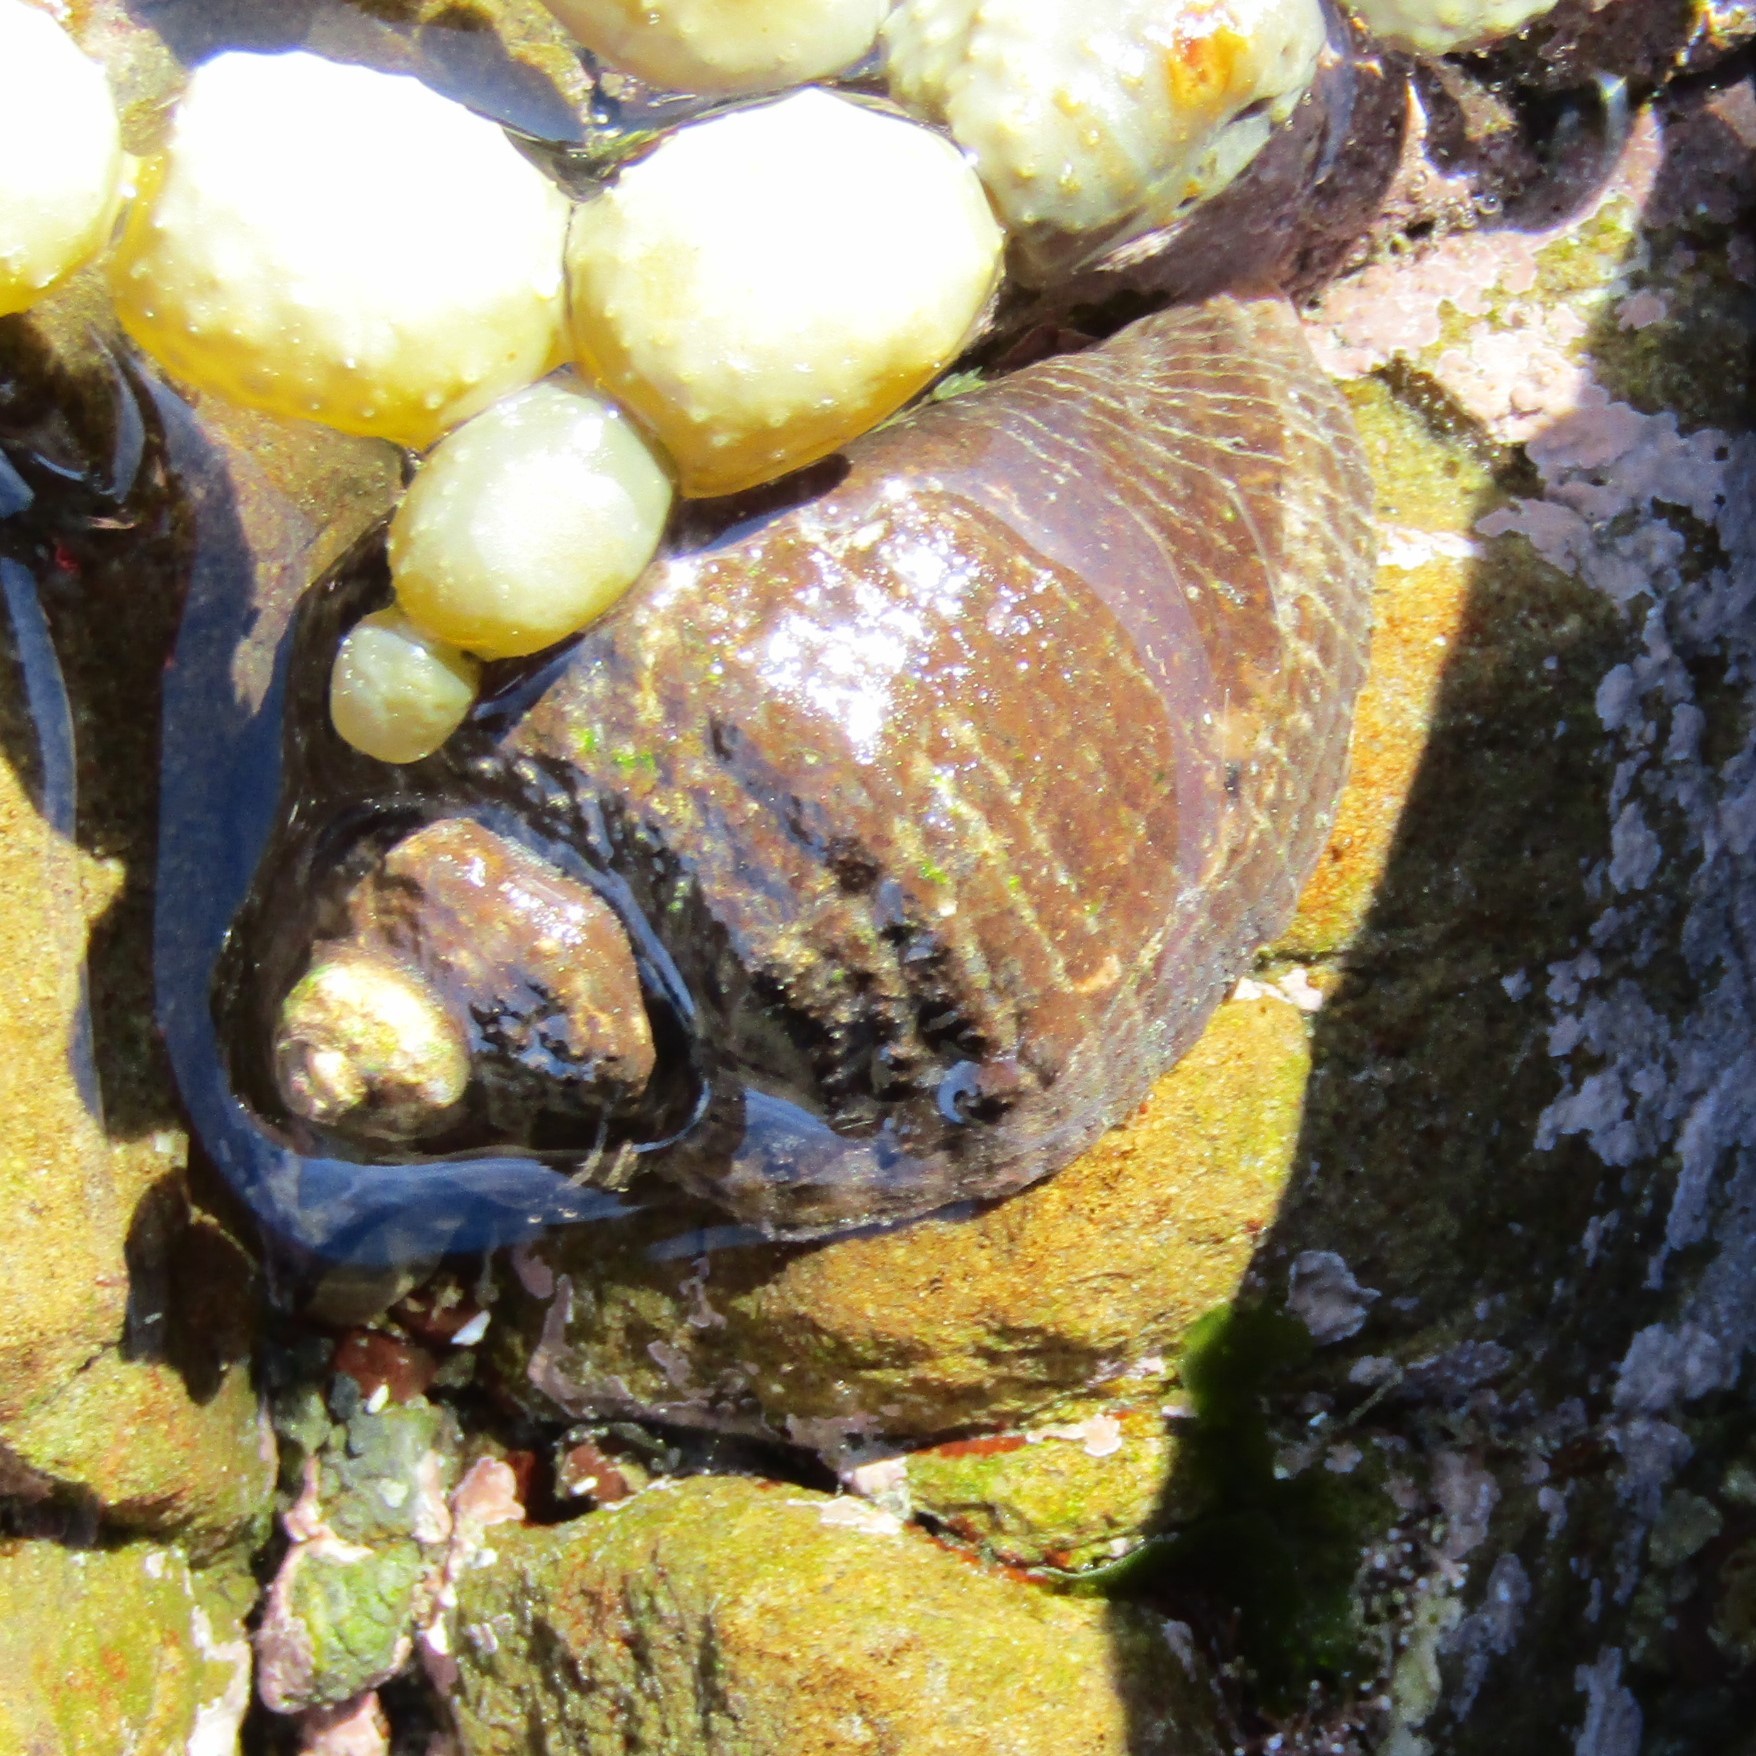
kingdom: Animalia
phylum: Mollusca
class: Gastropoda
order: Neogastropoda
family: Muricidae
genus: Haustrum
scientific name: Haustrum haustorium
